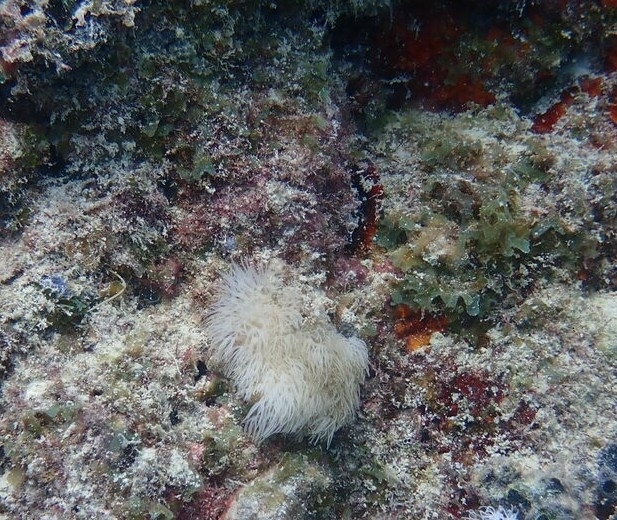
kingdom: Animalia
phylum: Cnidaria
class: Anthozoa
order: Scleralcyonacea
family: Erythropodiidae
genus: Erythropodium
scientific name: Erythropodium caribaeorum
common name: Encrusting gorgonian
